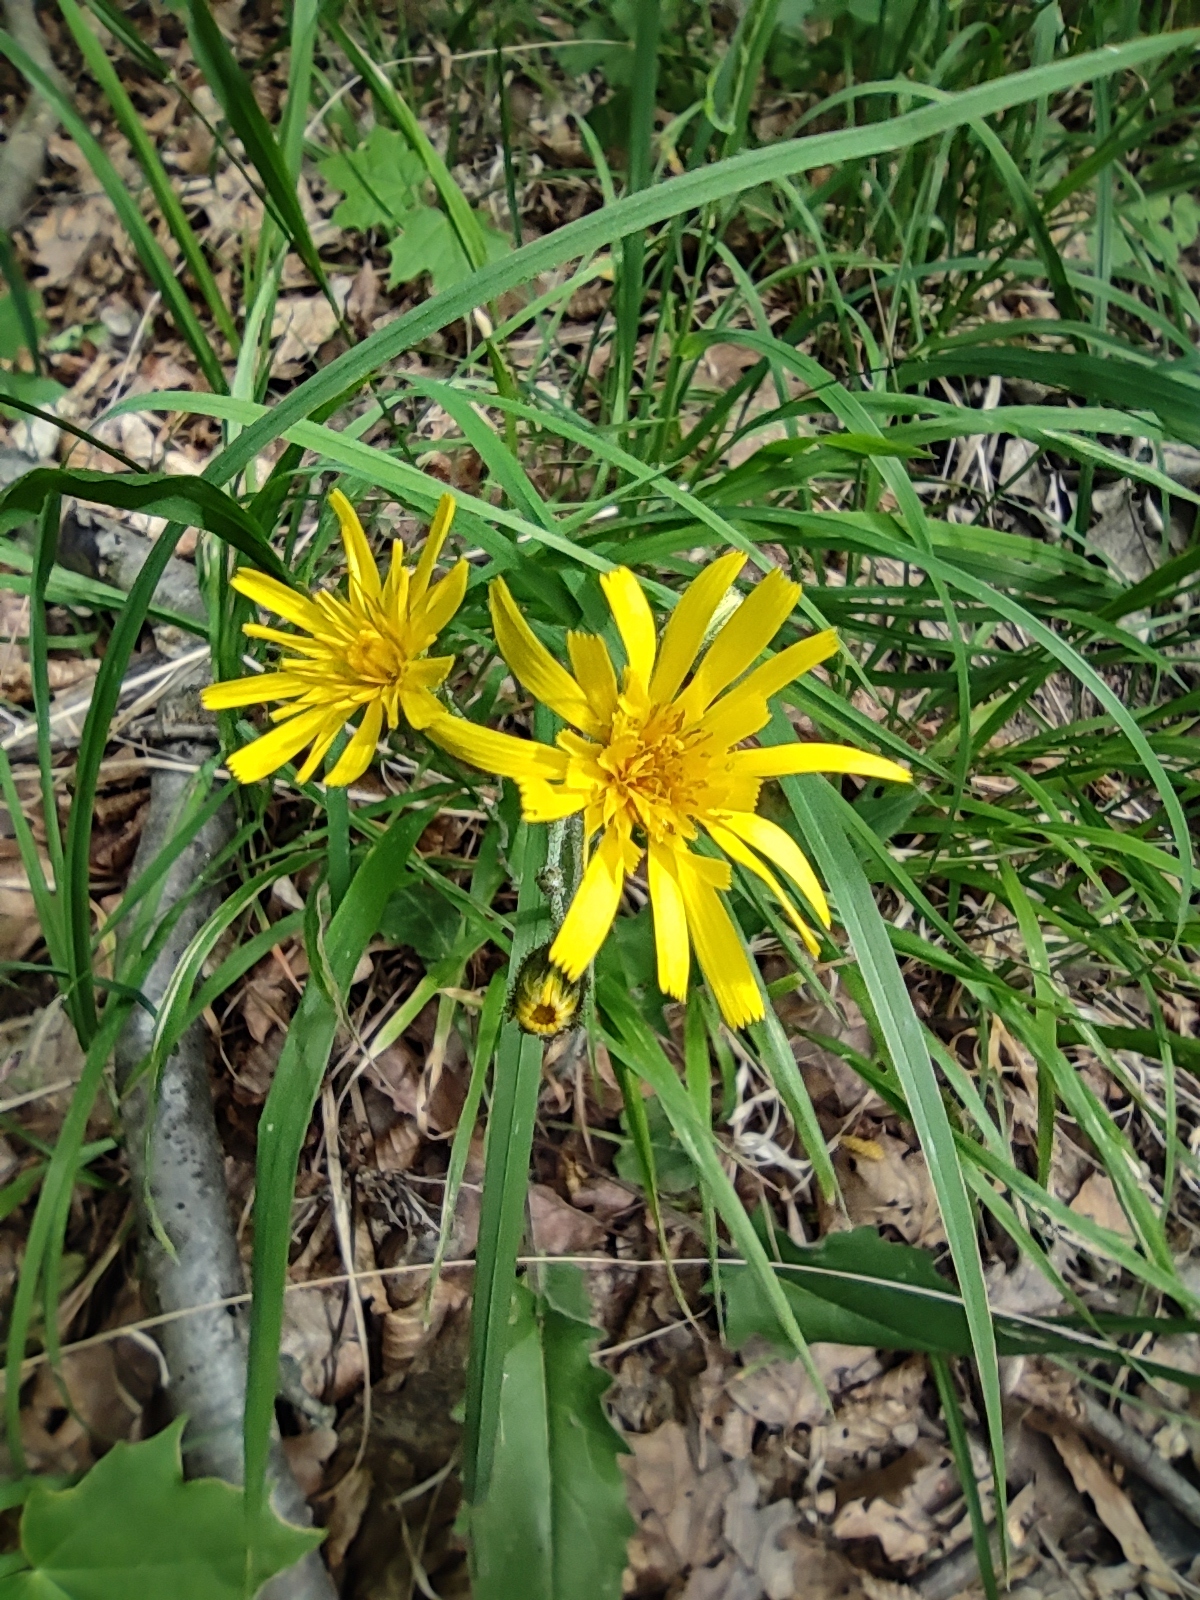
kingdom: Plantae
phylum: Tracheophyta
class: Magnoliopsida
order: Asterales
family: Asteraceae
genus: Hieracium
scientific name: Hieracium murorum
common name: Wall hawkweed
